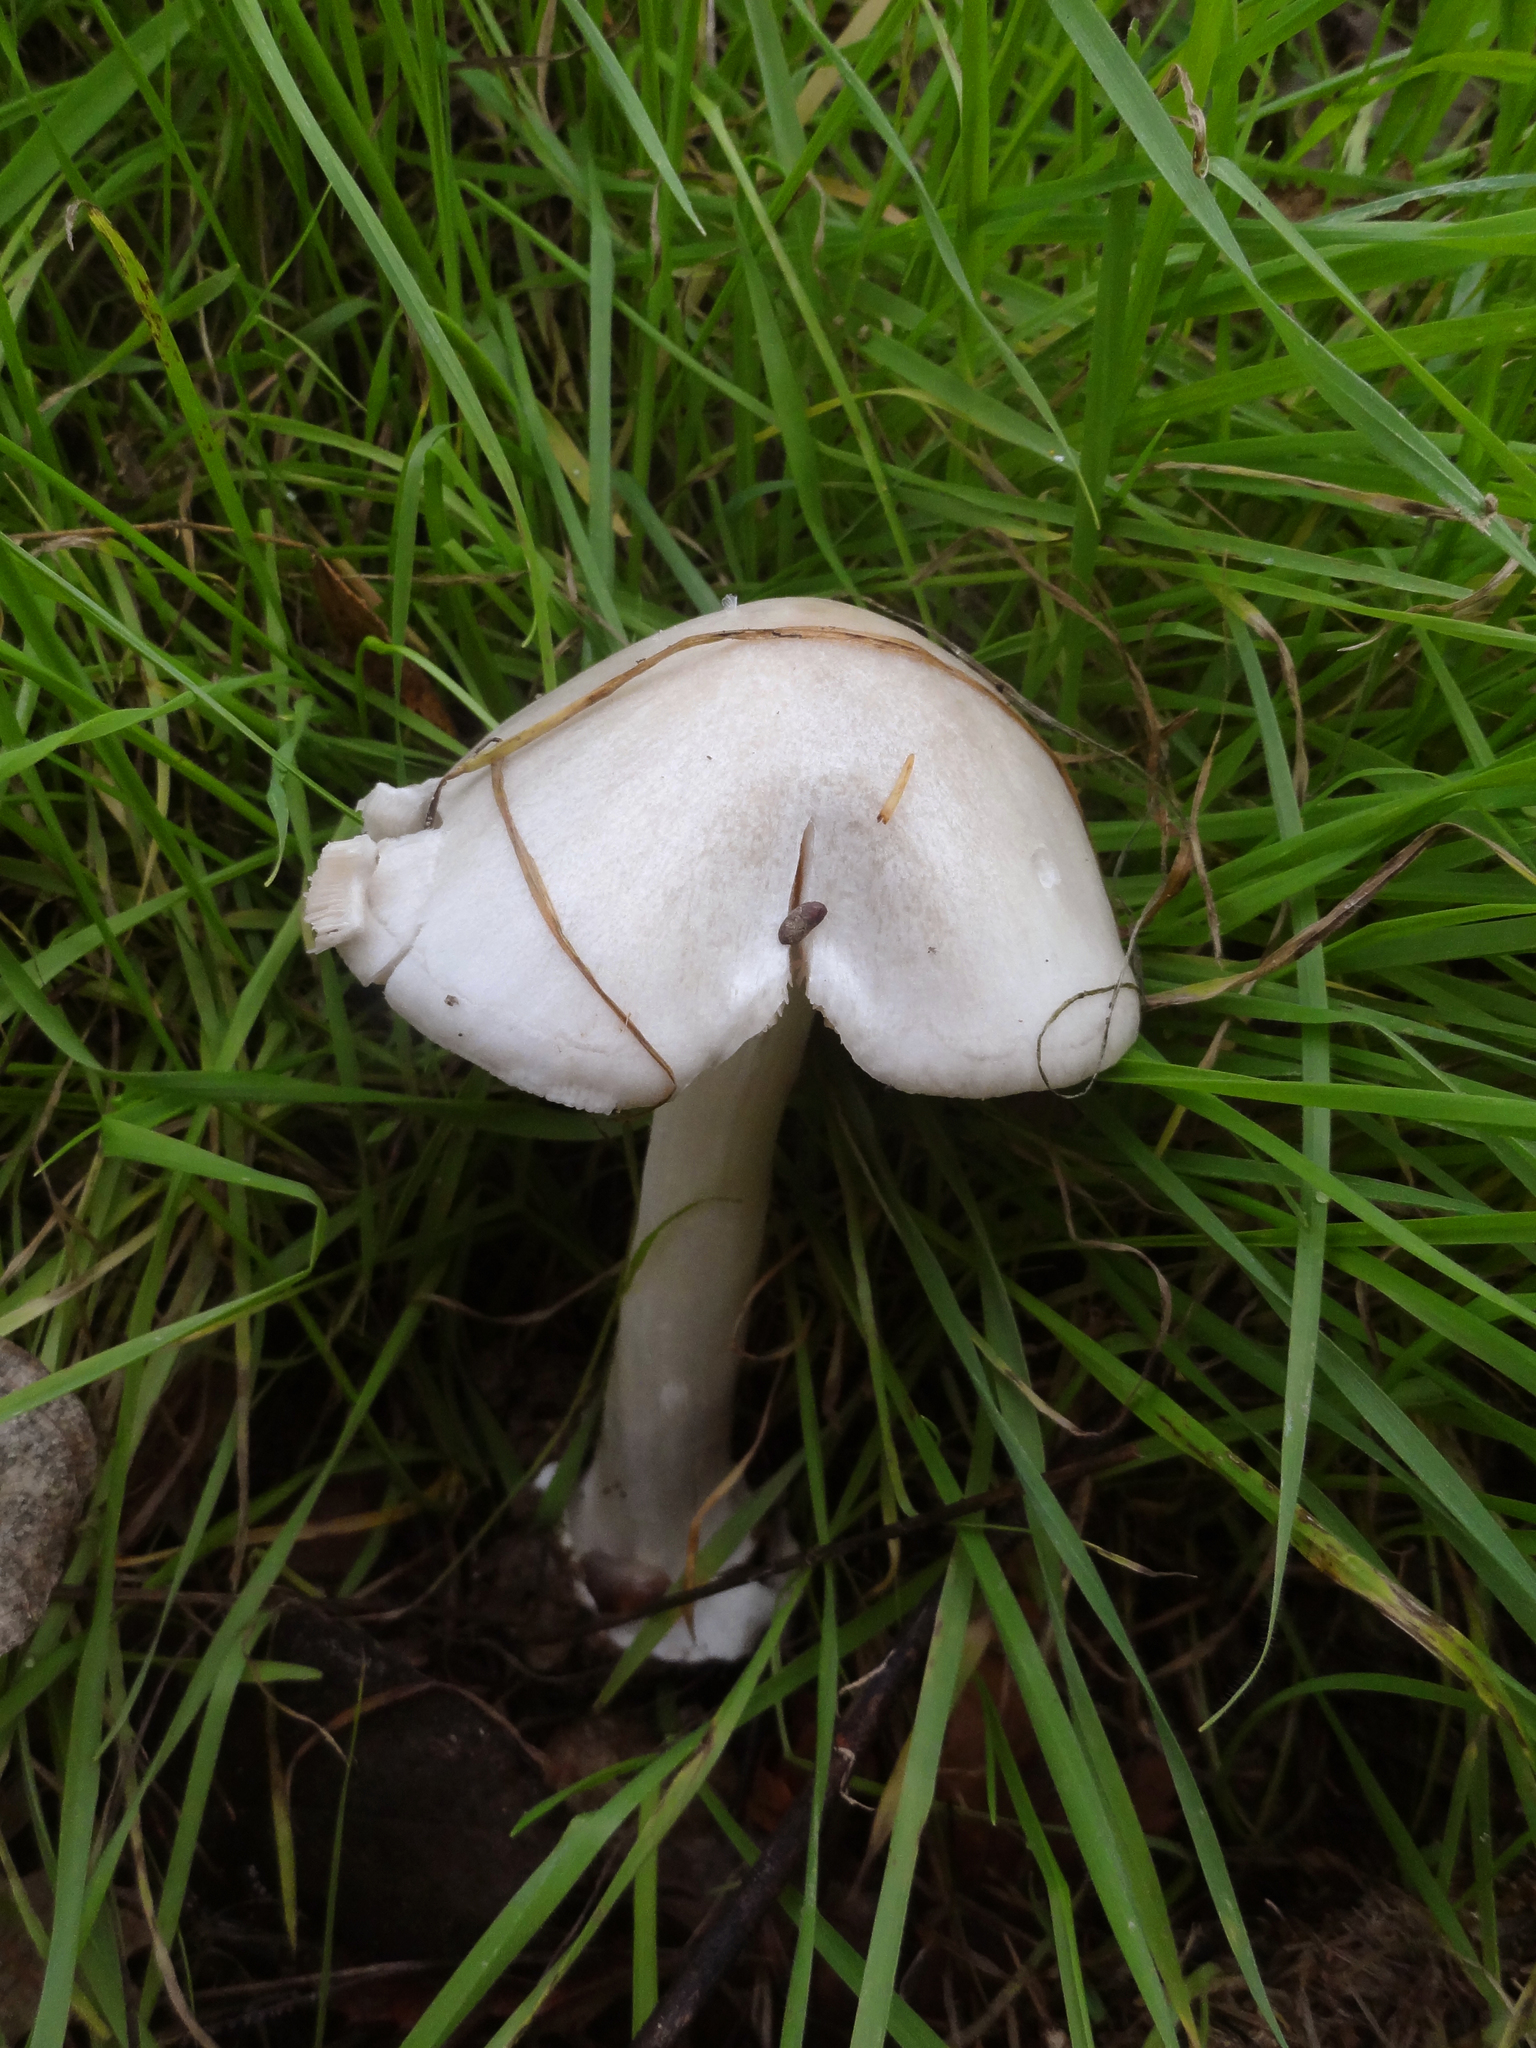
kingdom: Fungi
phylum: Basidiomycota
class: Agaricomycetes
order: Agaricales
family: Pluteaceae
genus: Volvopluteus
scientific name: Volvopluteus gloiocephalus
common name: Stubble rosegill
